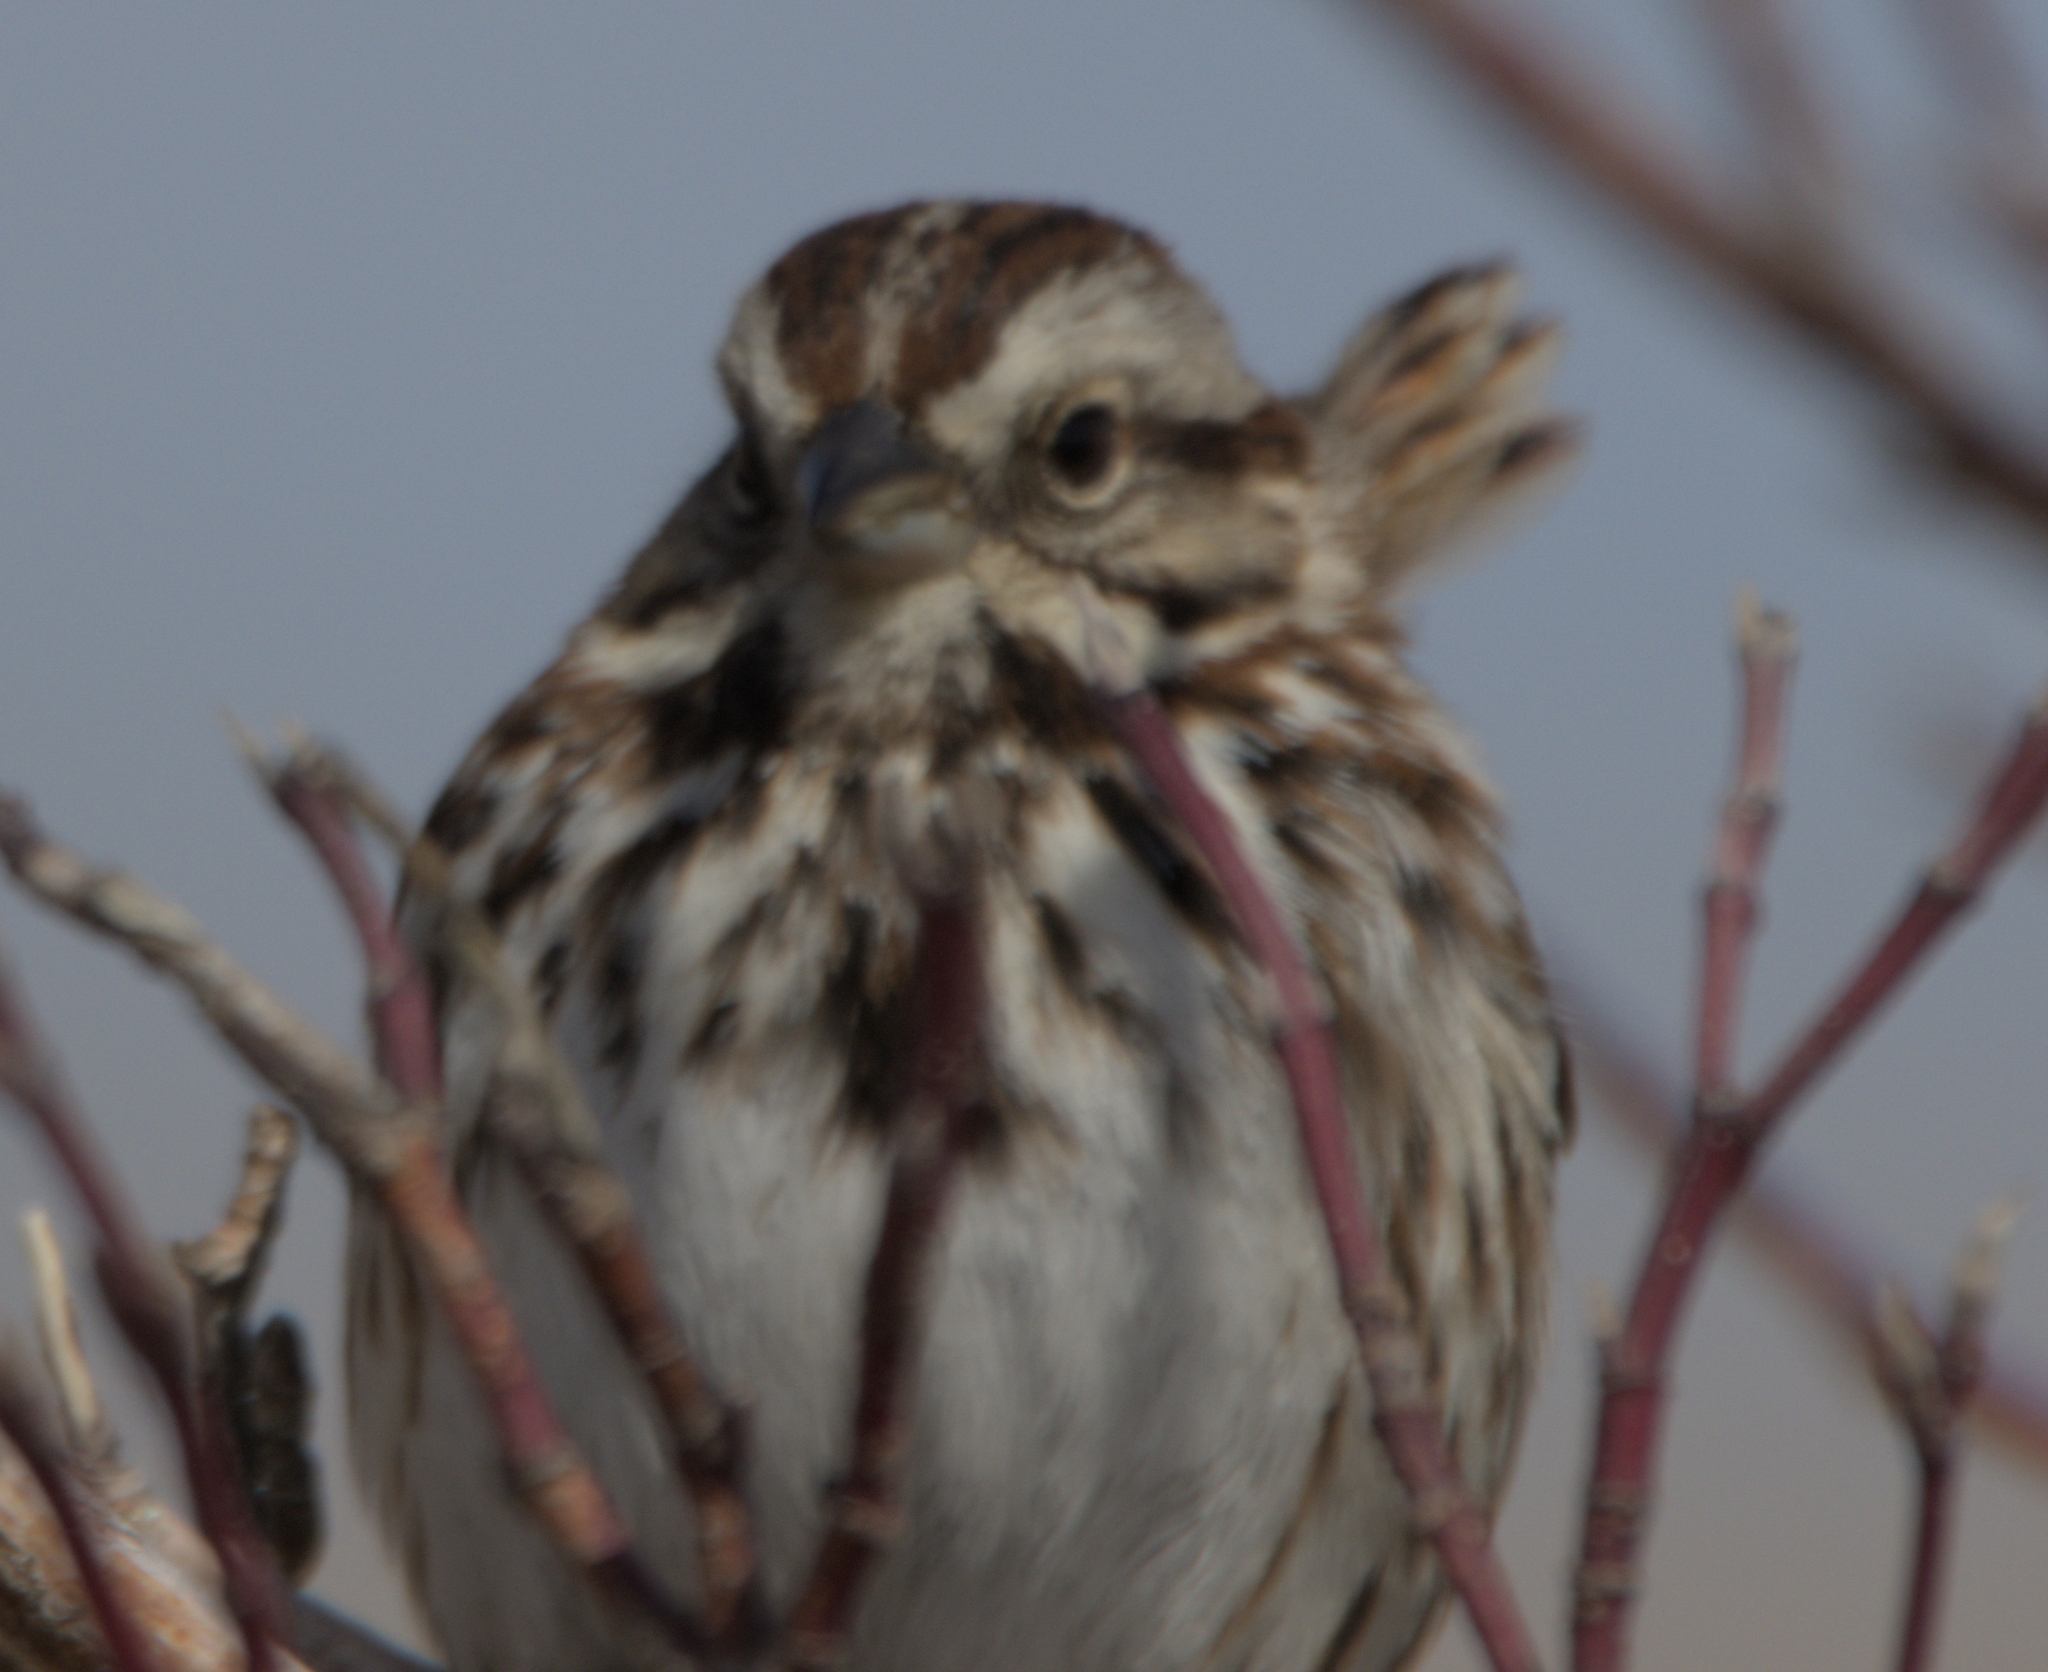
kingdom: Animalia
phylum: Chordata
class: Aves
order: Passeriformes
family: Passerellidae
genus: Melospiza
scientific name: Melospiza melodia
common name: Song sparrow
